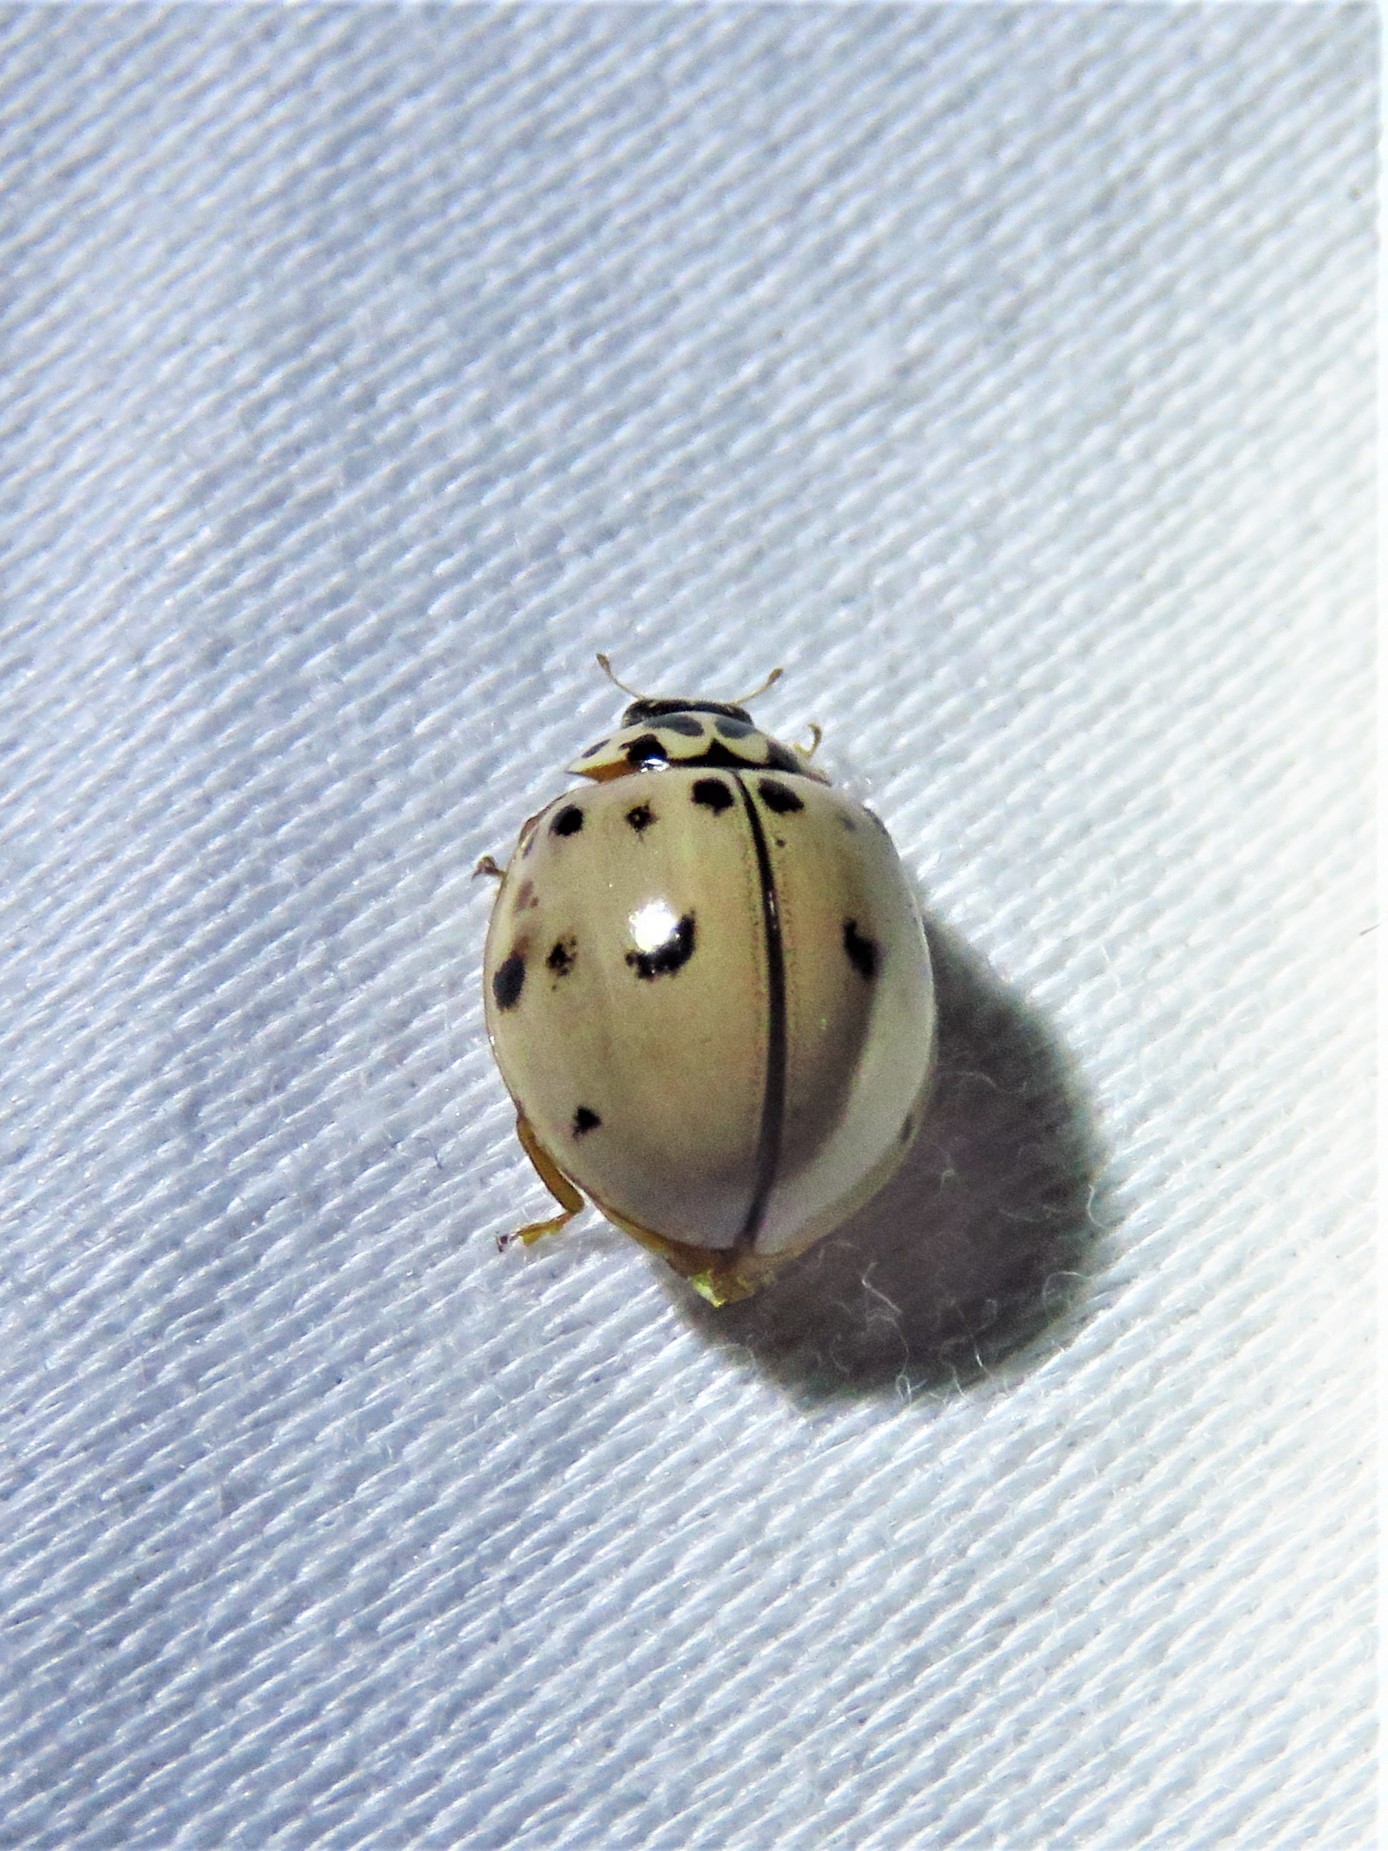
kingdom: Animalia
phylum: Arthropoda
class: Insecta
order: Coleoptera
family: Coccinellidae
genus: Olla
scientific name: Olla v-nigrum
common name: Ashy gray lady beetle
